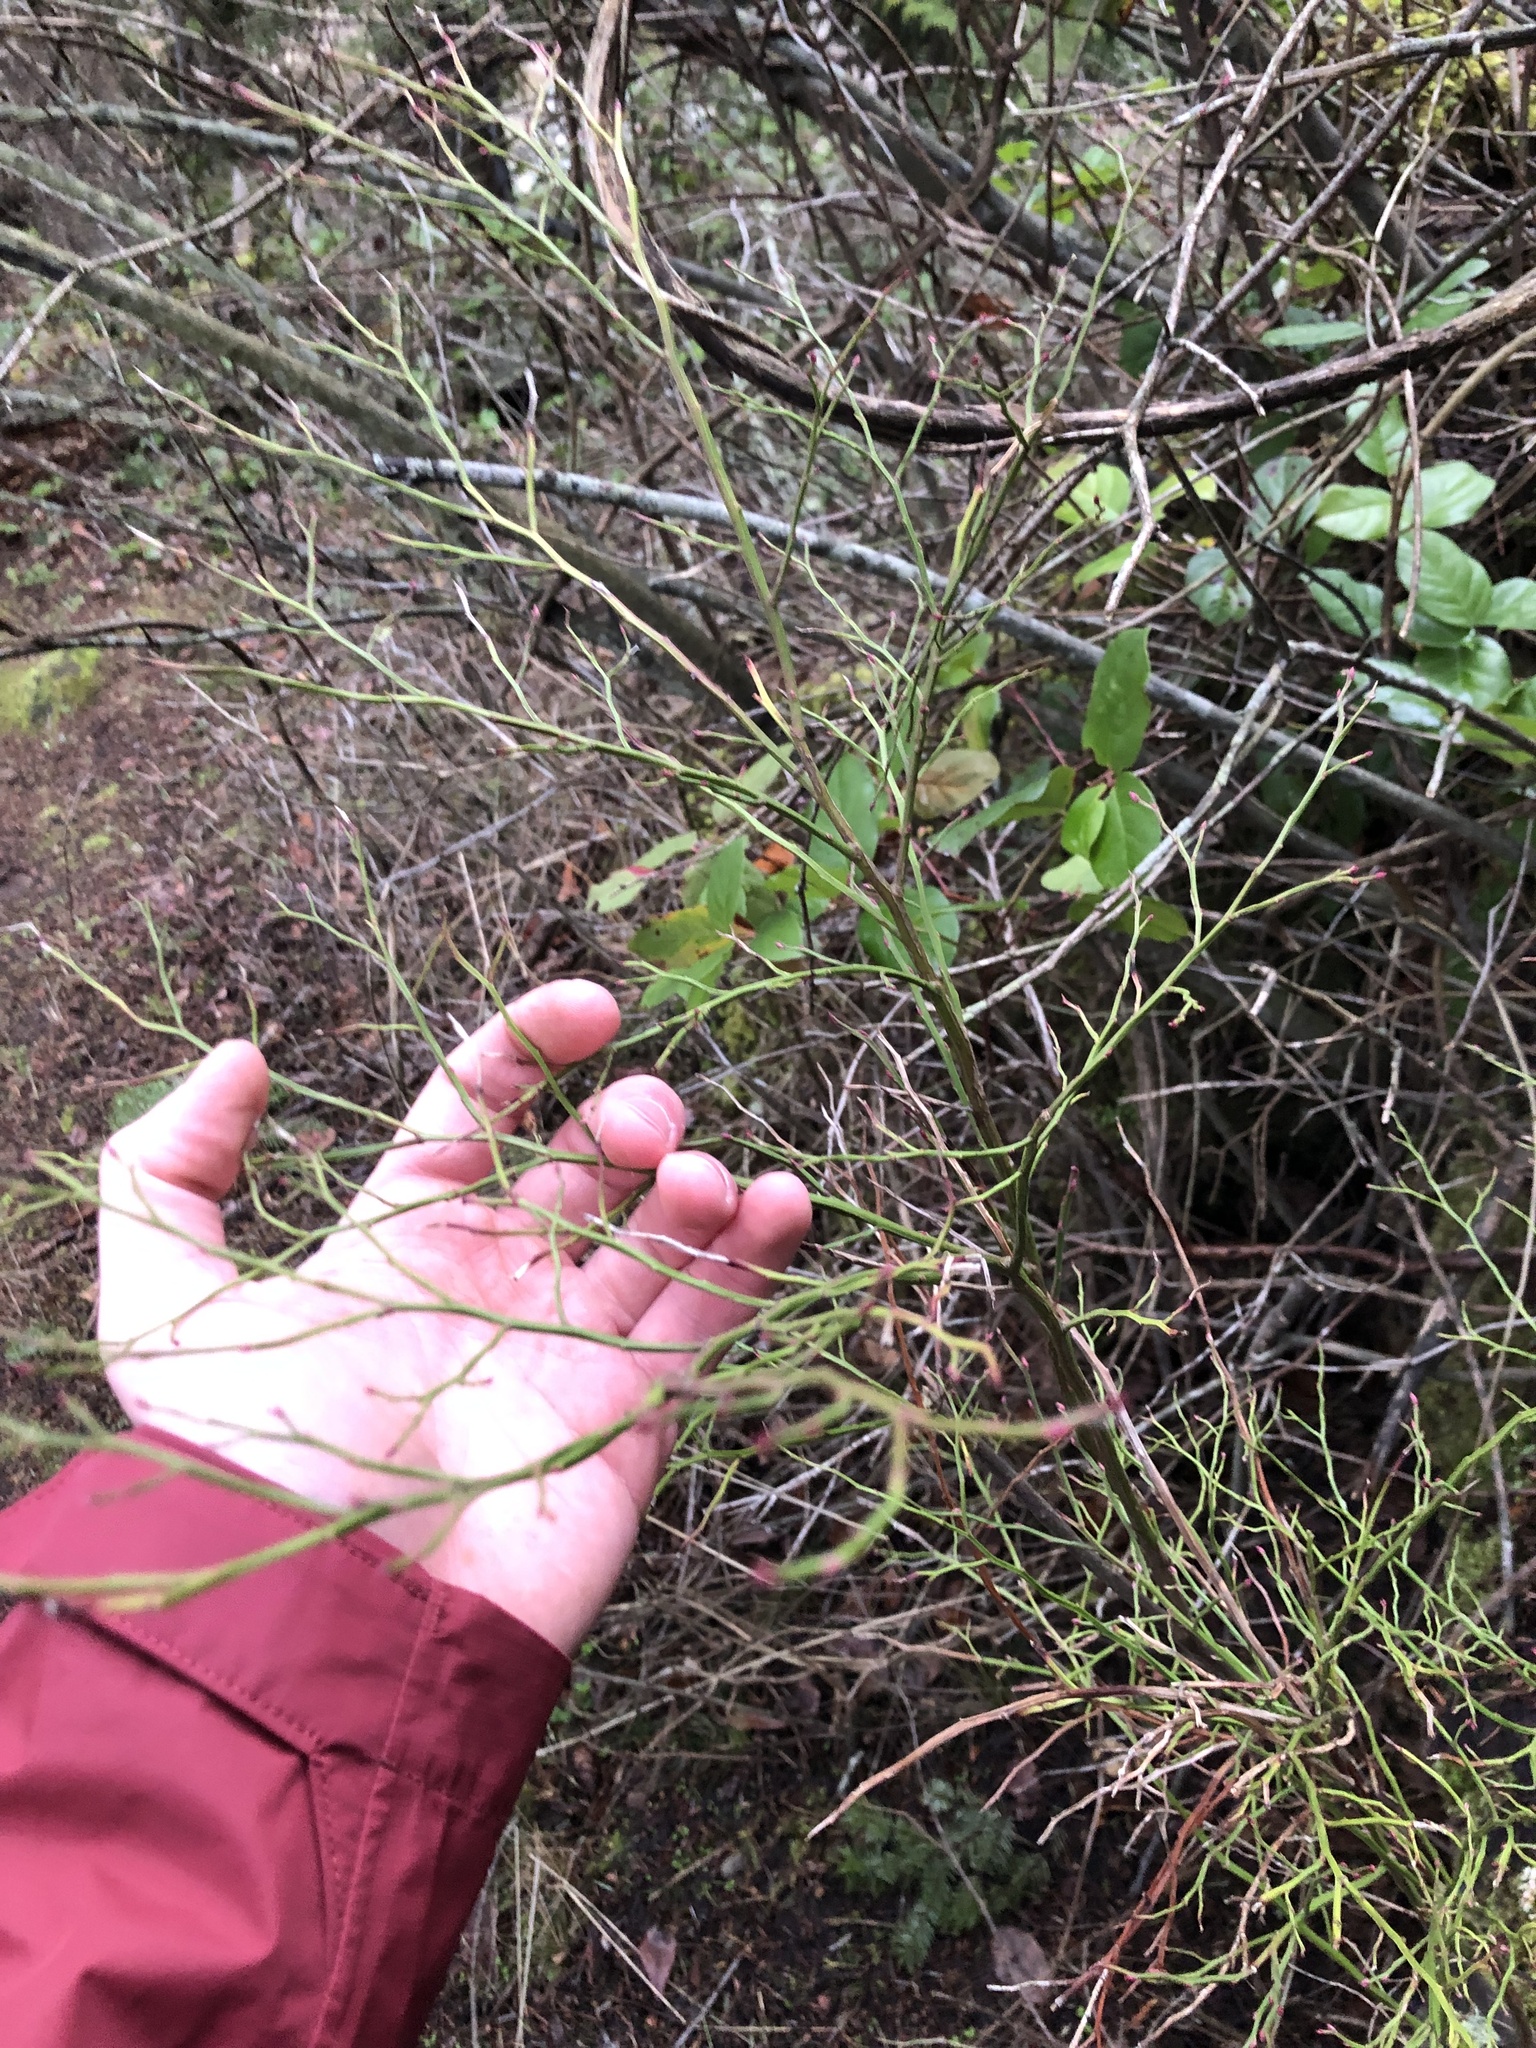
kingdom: Plantae
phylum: Tracheophyta
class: Magnoliopsida
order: Ericales
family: Ericaceae
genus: Vaccinium
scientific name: Vaccinium parvifolium
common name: Red-huckleberry
